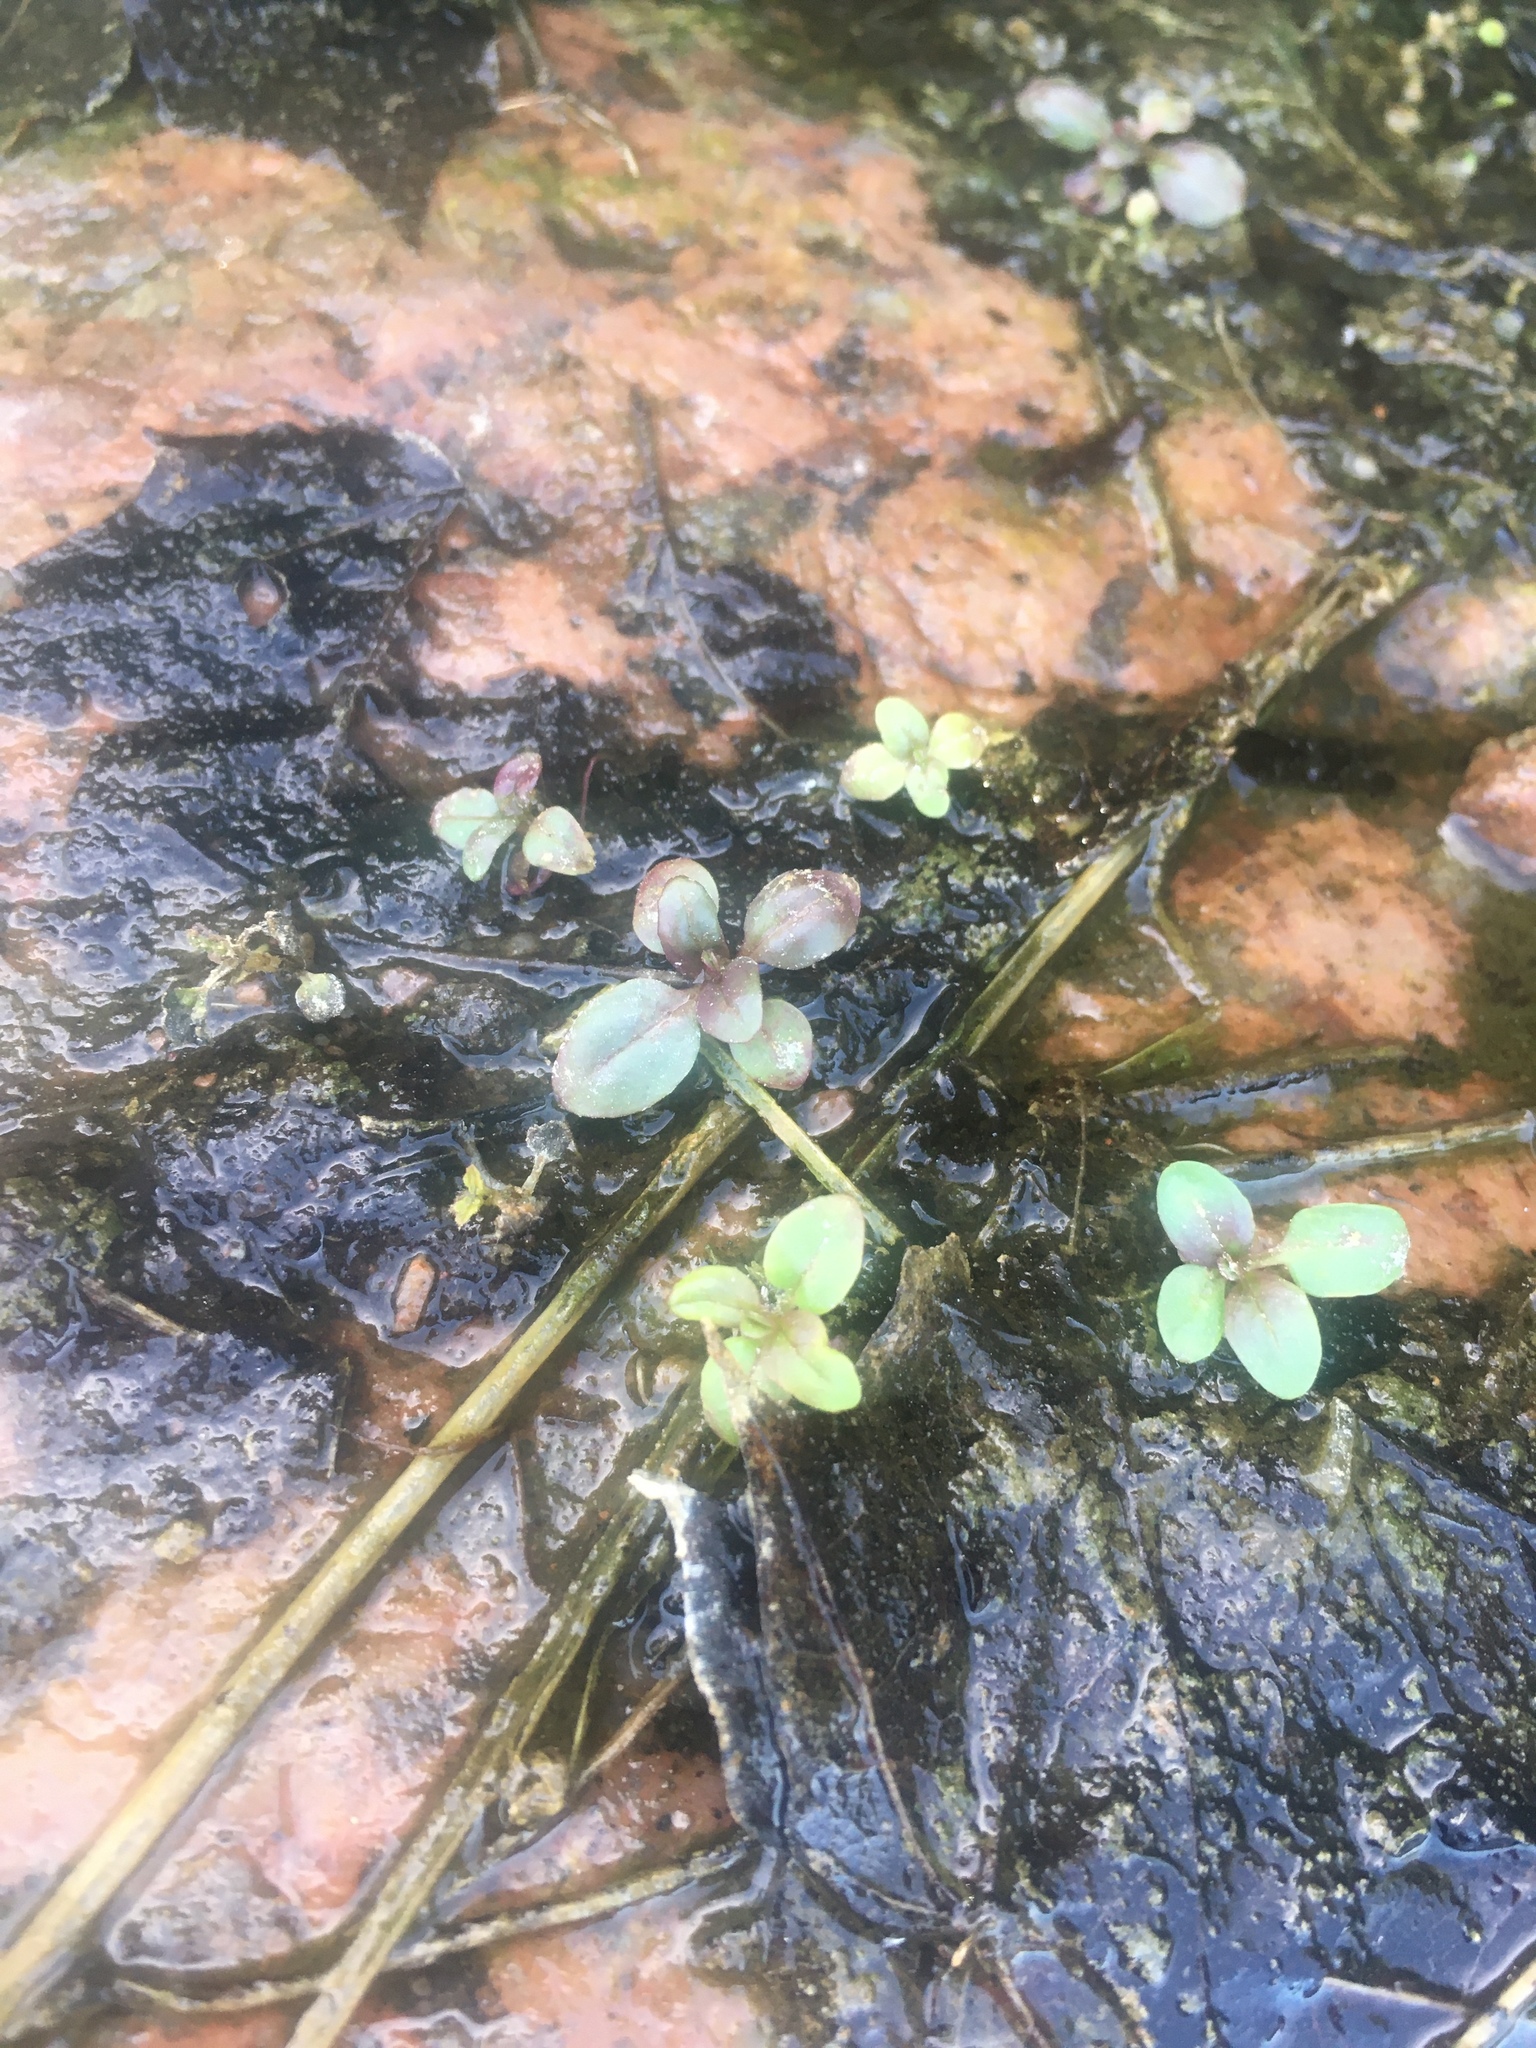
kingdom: Plantae
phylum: Tracheophyta
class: Liliopsida
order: Alismatales
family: Araceae
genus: Spirodela
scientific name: Spirodela polyrhiza
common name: Great duckweed
